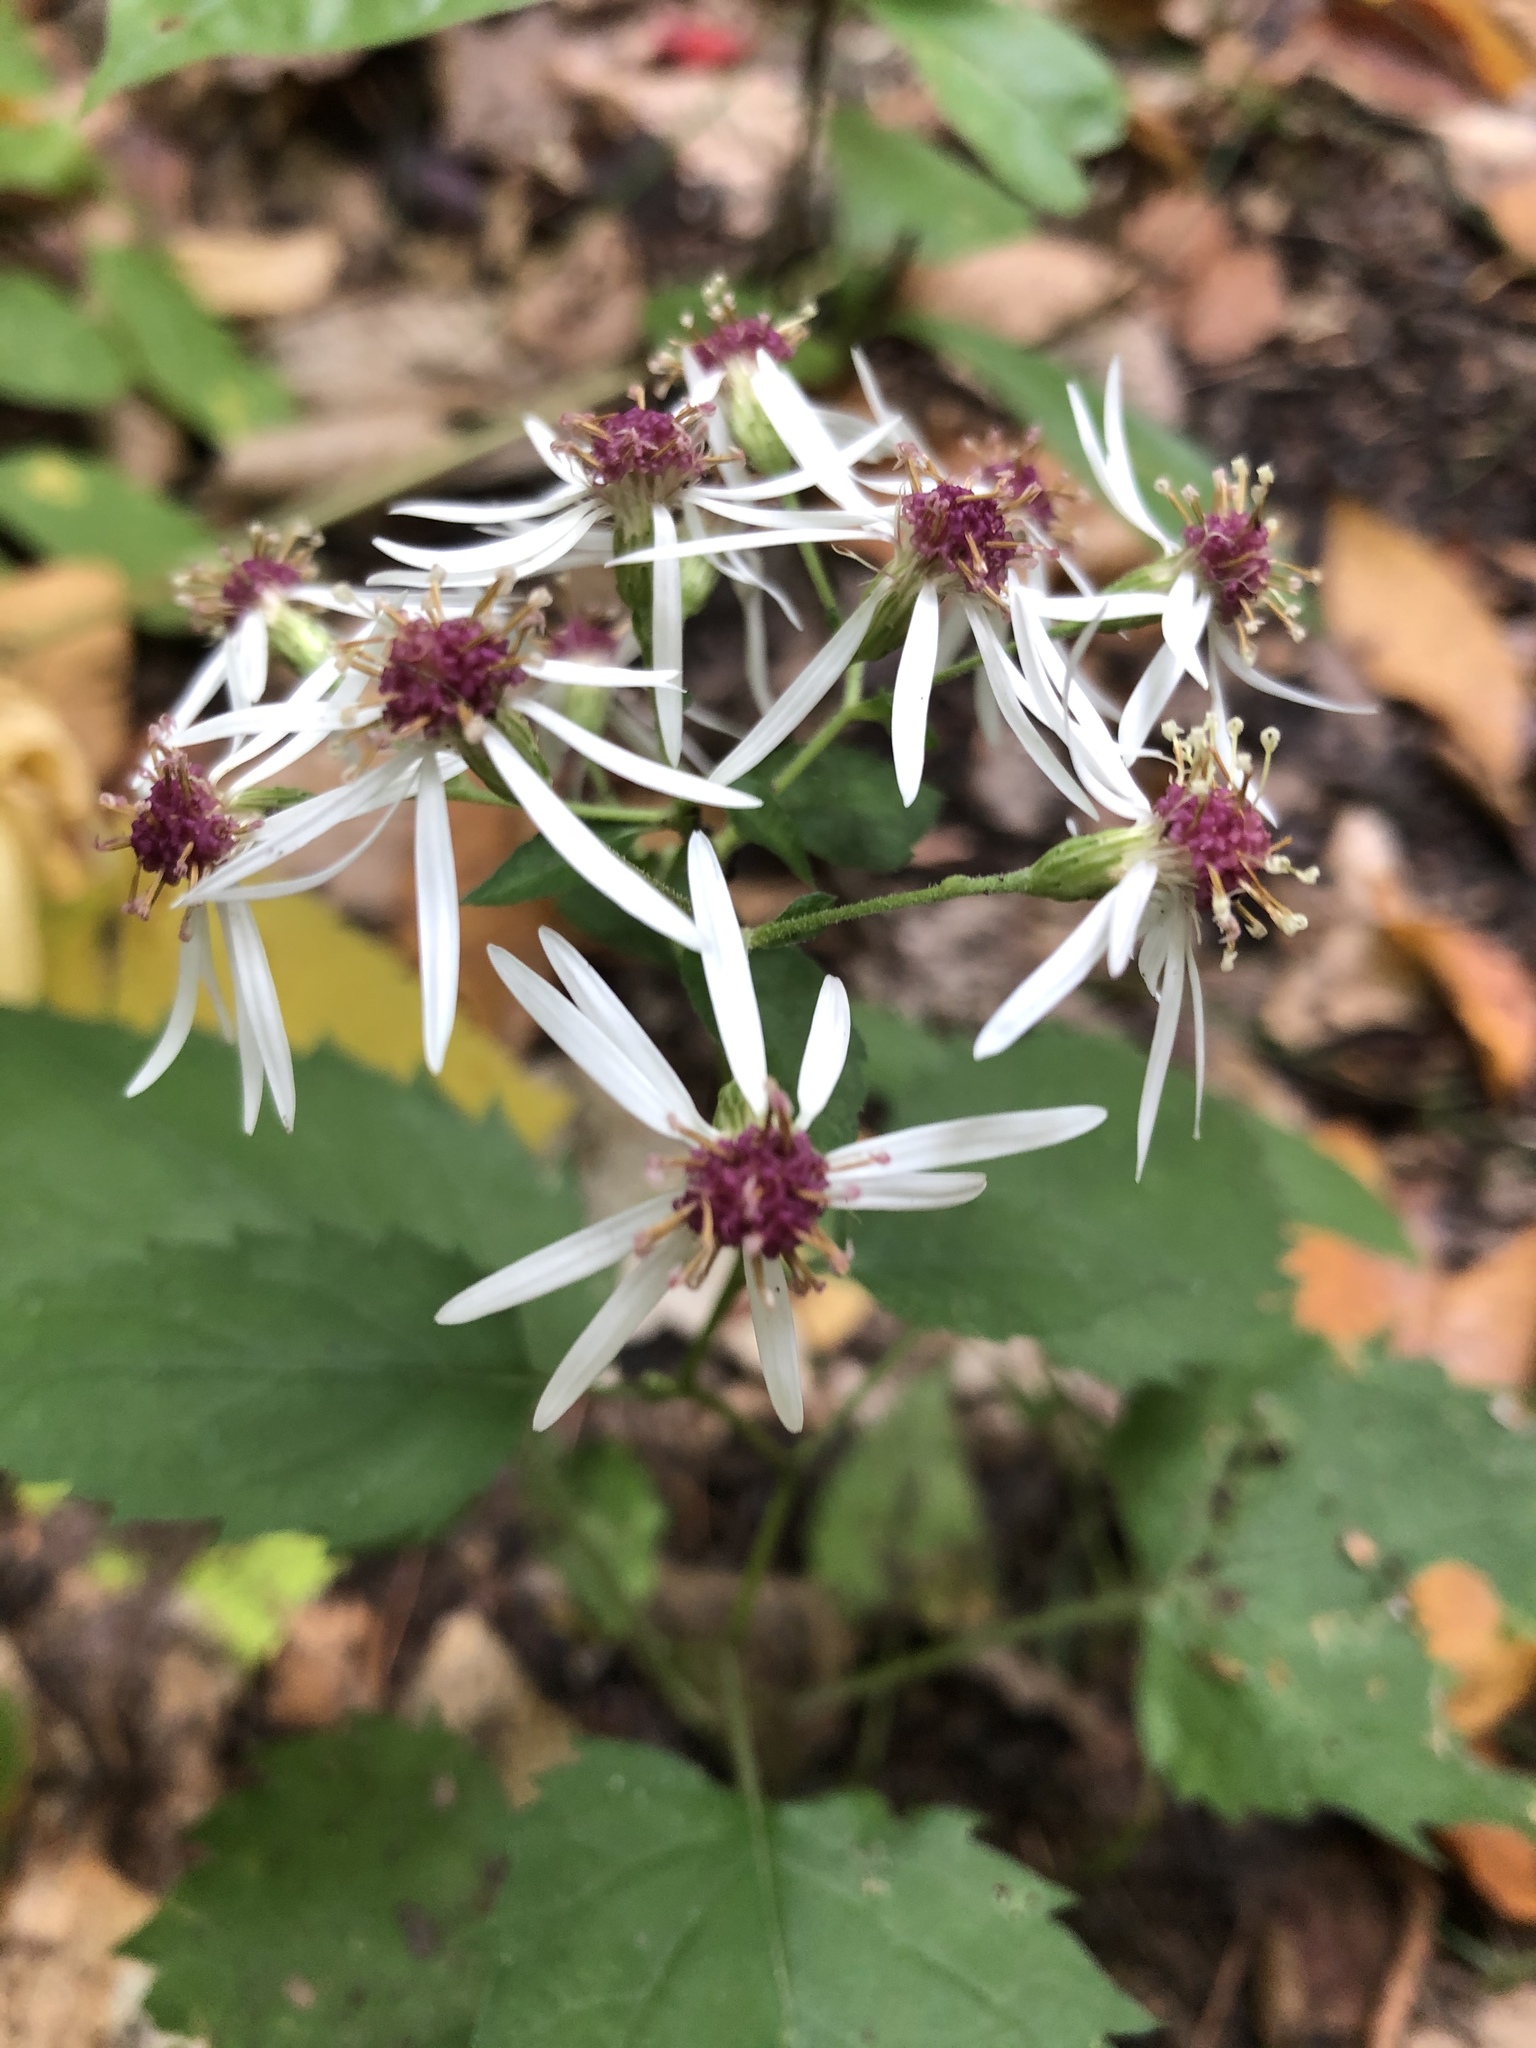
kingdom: Plantae
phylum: Tracheophyta
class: Magnoliopsida
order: Asterales
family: Asteraceae
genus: Eurybia
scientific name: Eurybia divaricata
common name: White wood aster
